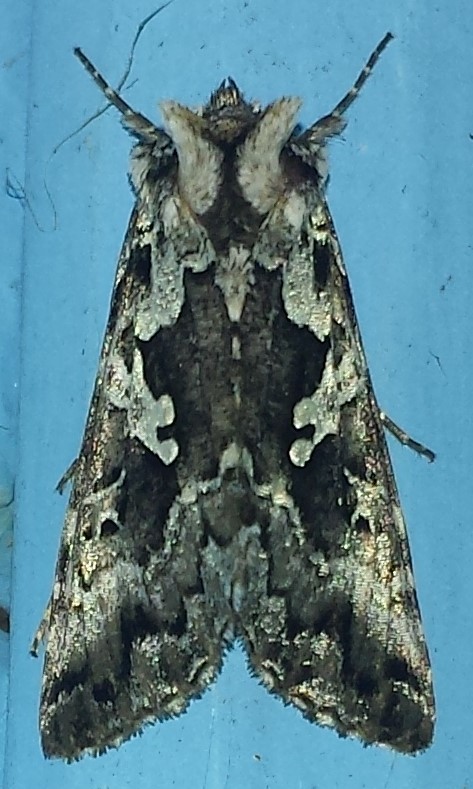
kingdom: Animalia
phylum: Arthropoda
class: Insecta
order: Lepidoptera
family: Noctuidae
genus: Syngrapha
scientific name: Syngrapha rectangula
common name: Angulated cutworm
